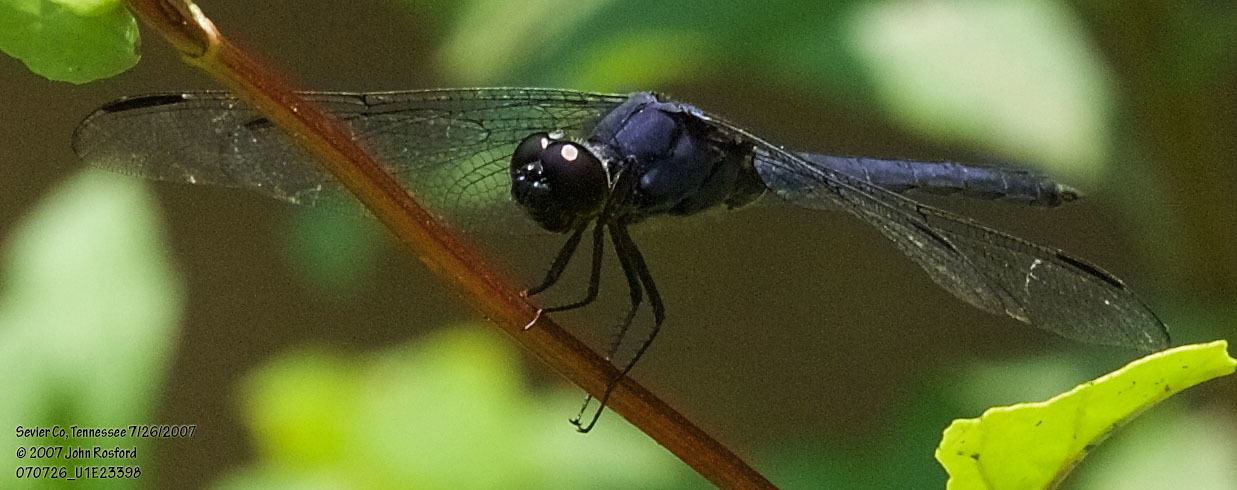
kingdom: Animalia
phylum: Arthropoda
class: Insecta
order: Odonata
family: Libellulidae
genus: Libellula
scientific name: Libellula incesta
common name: Slaty skimmer
